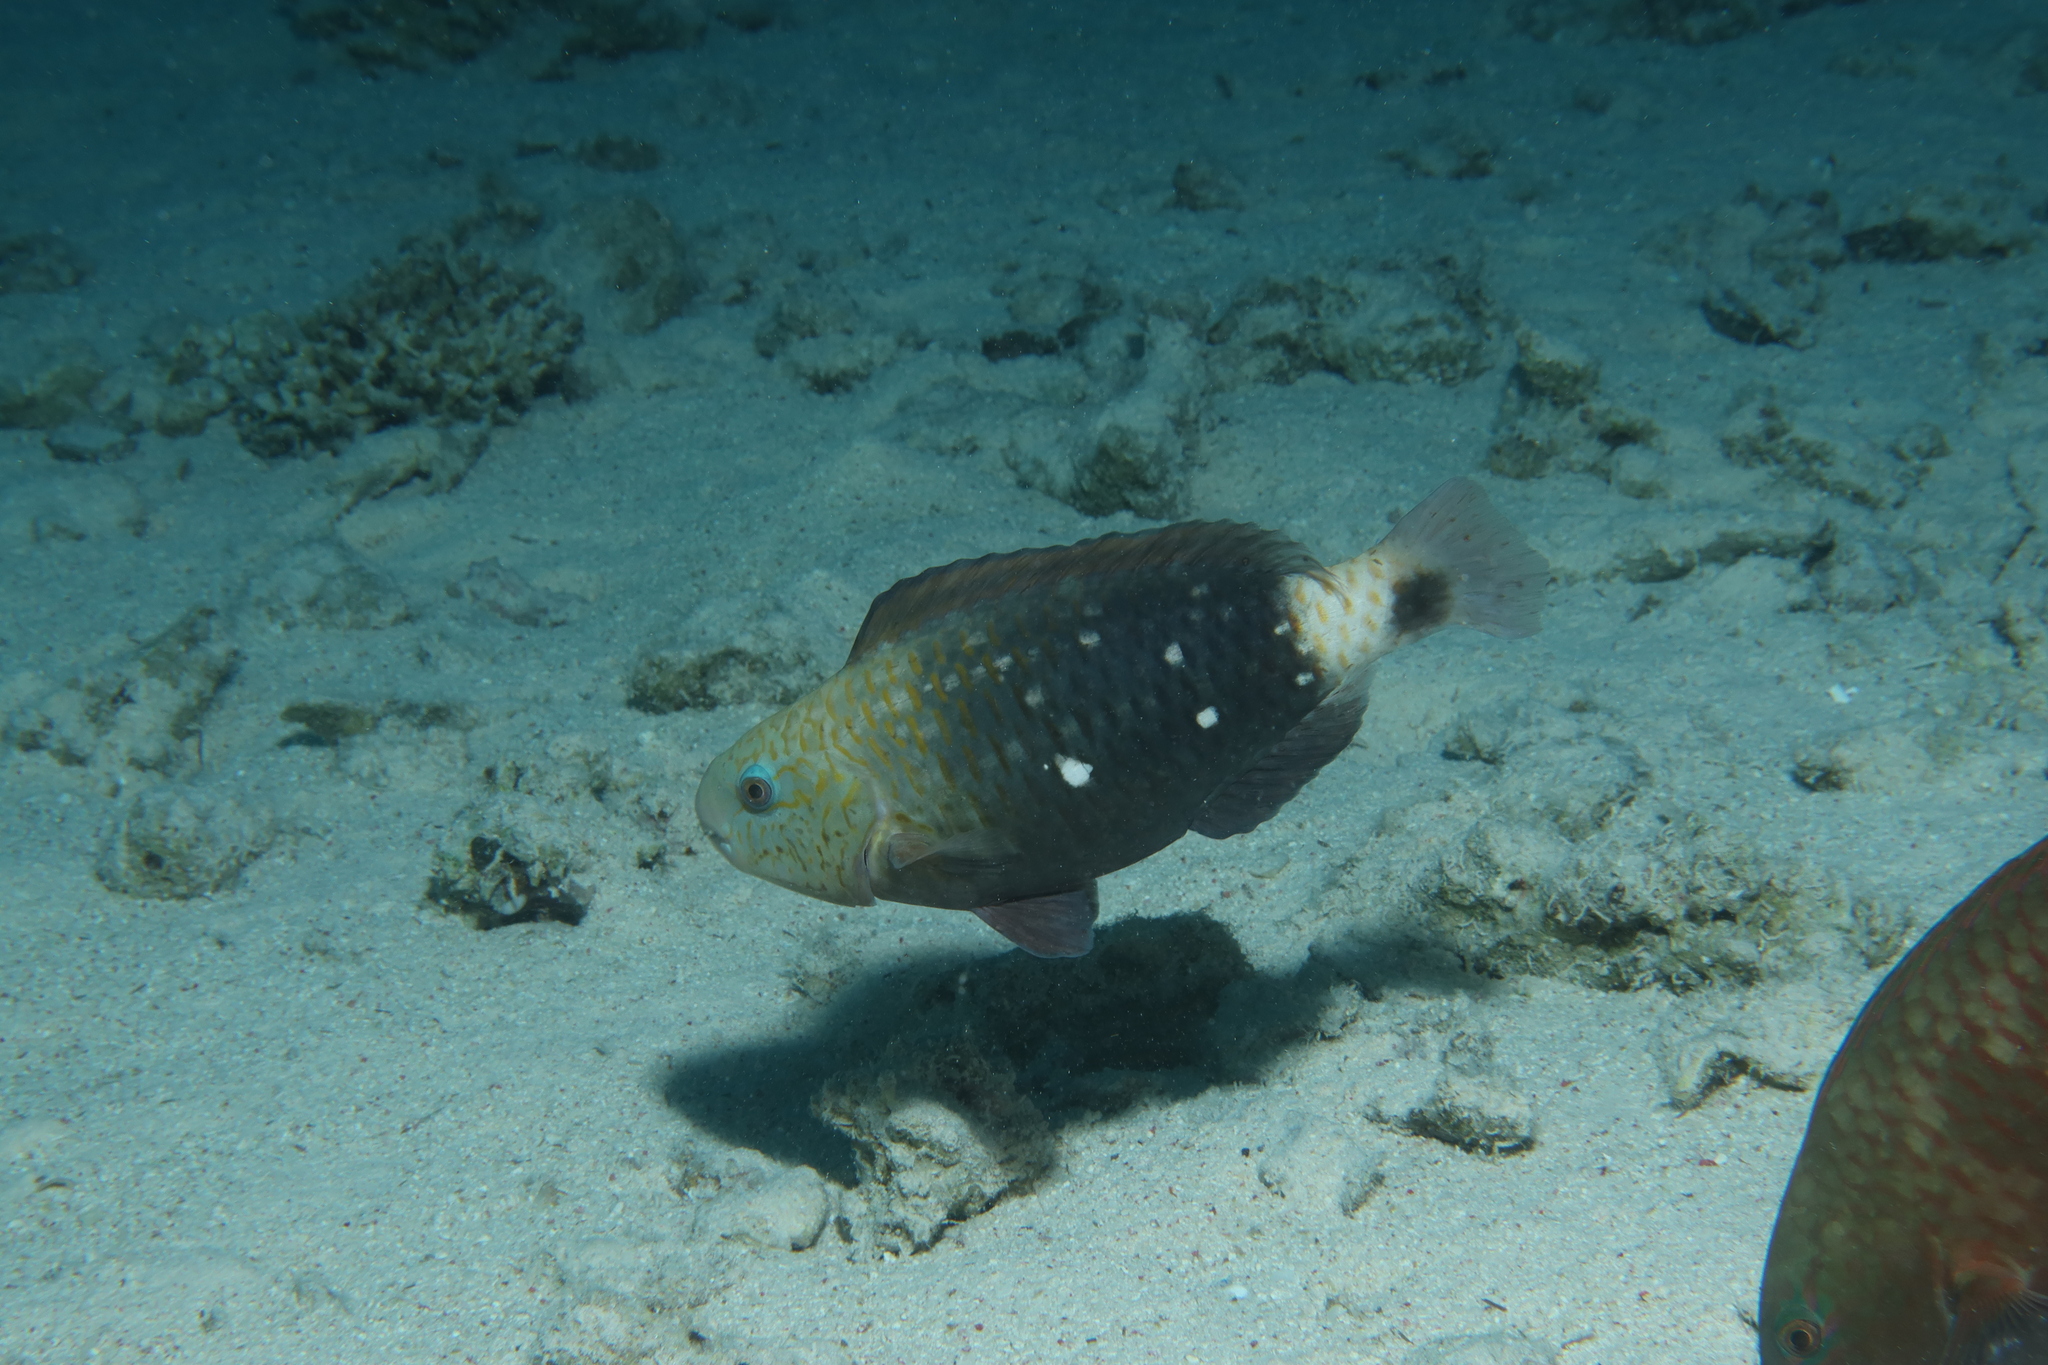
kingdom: Animalia
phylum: Chordata
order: Perciformes
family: Scaridae
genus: Chlorurus
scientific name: Chlorurus sordidus
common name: Bullethead parrotfish
